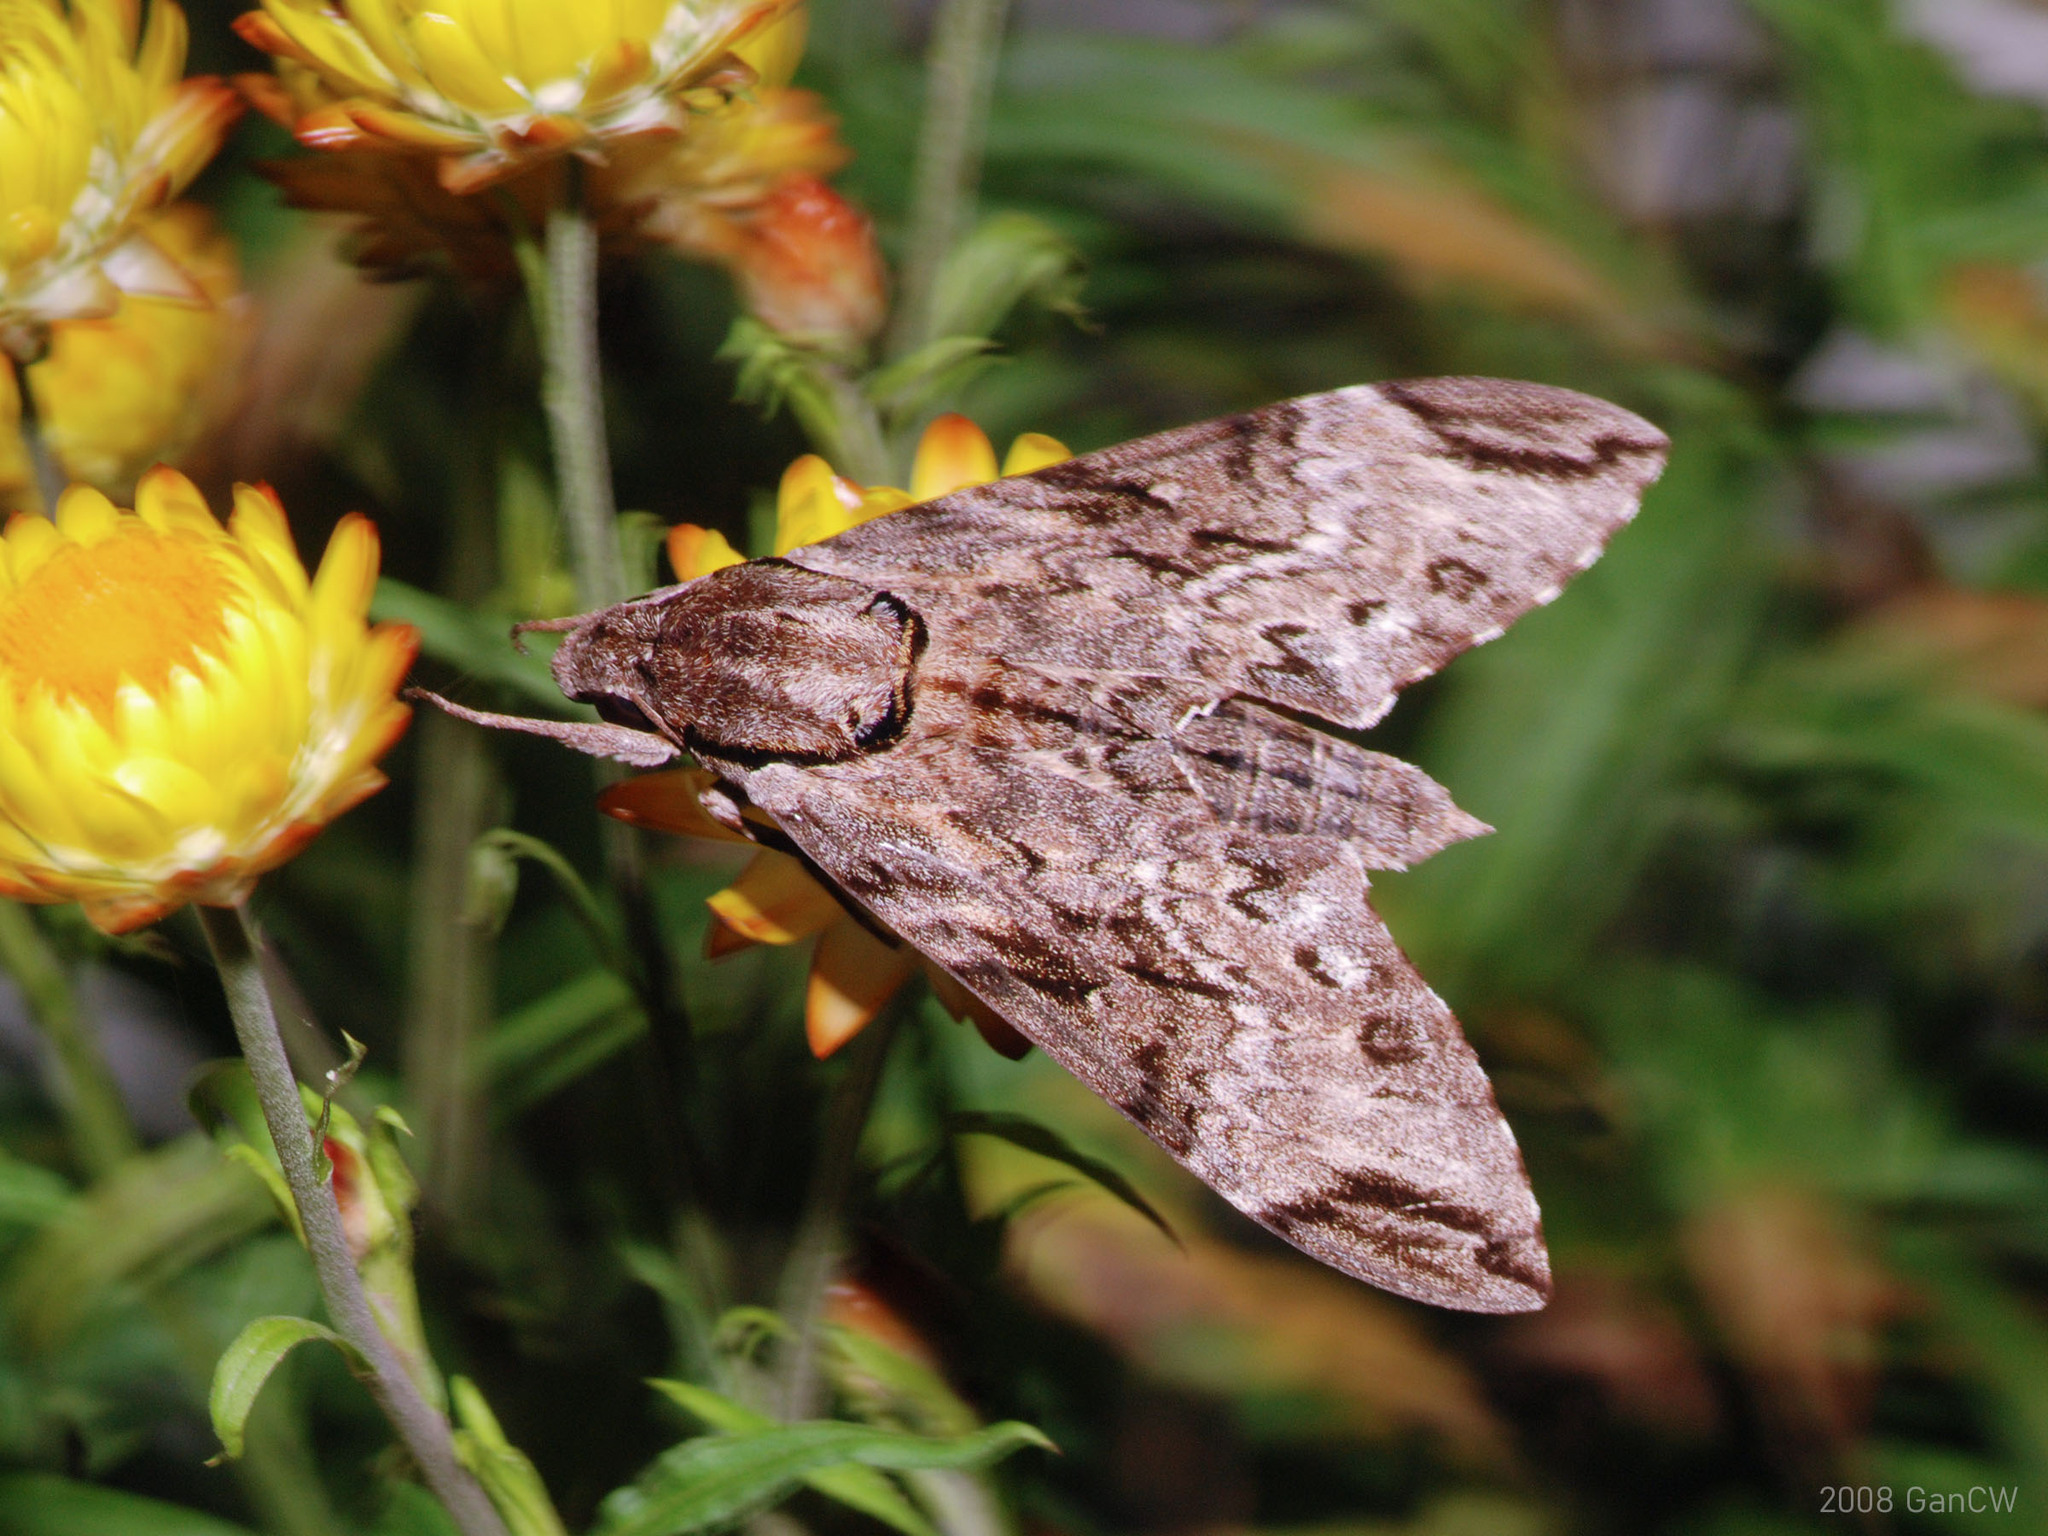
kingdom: Animalia
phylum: Arthropoda
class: Insecta
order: Lepidoptera
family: Sphingidae
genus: Psilogramma
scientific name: Psilogramma menephron
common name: Gray hawk moth
